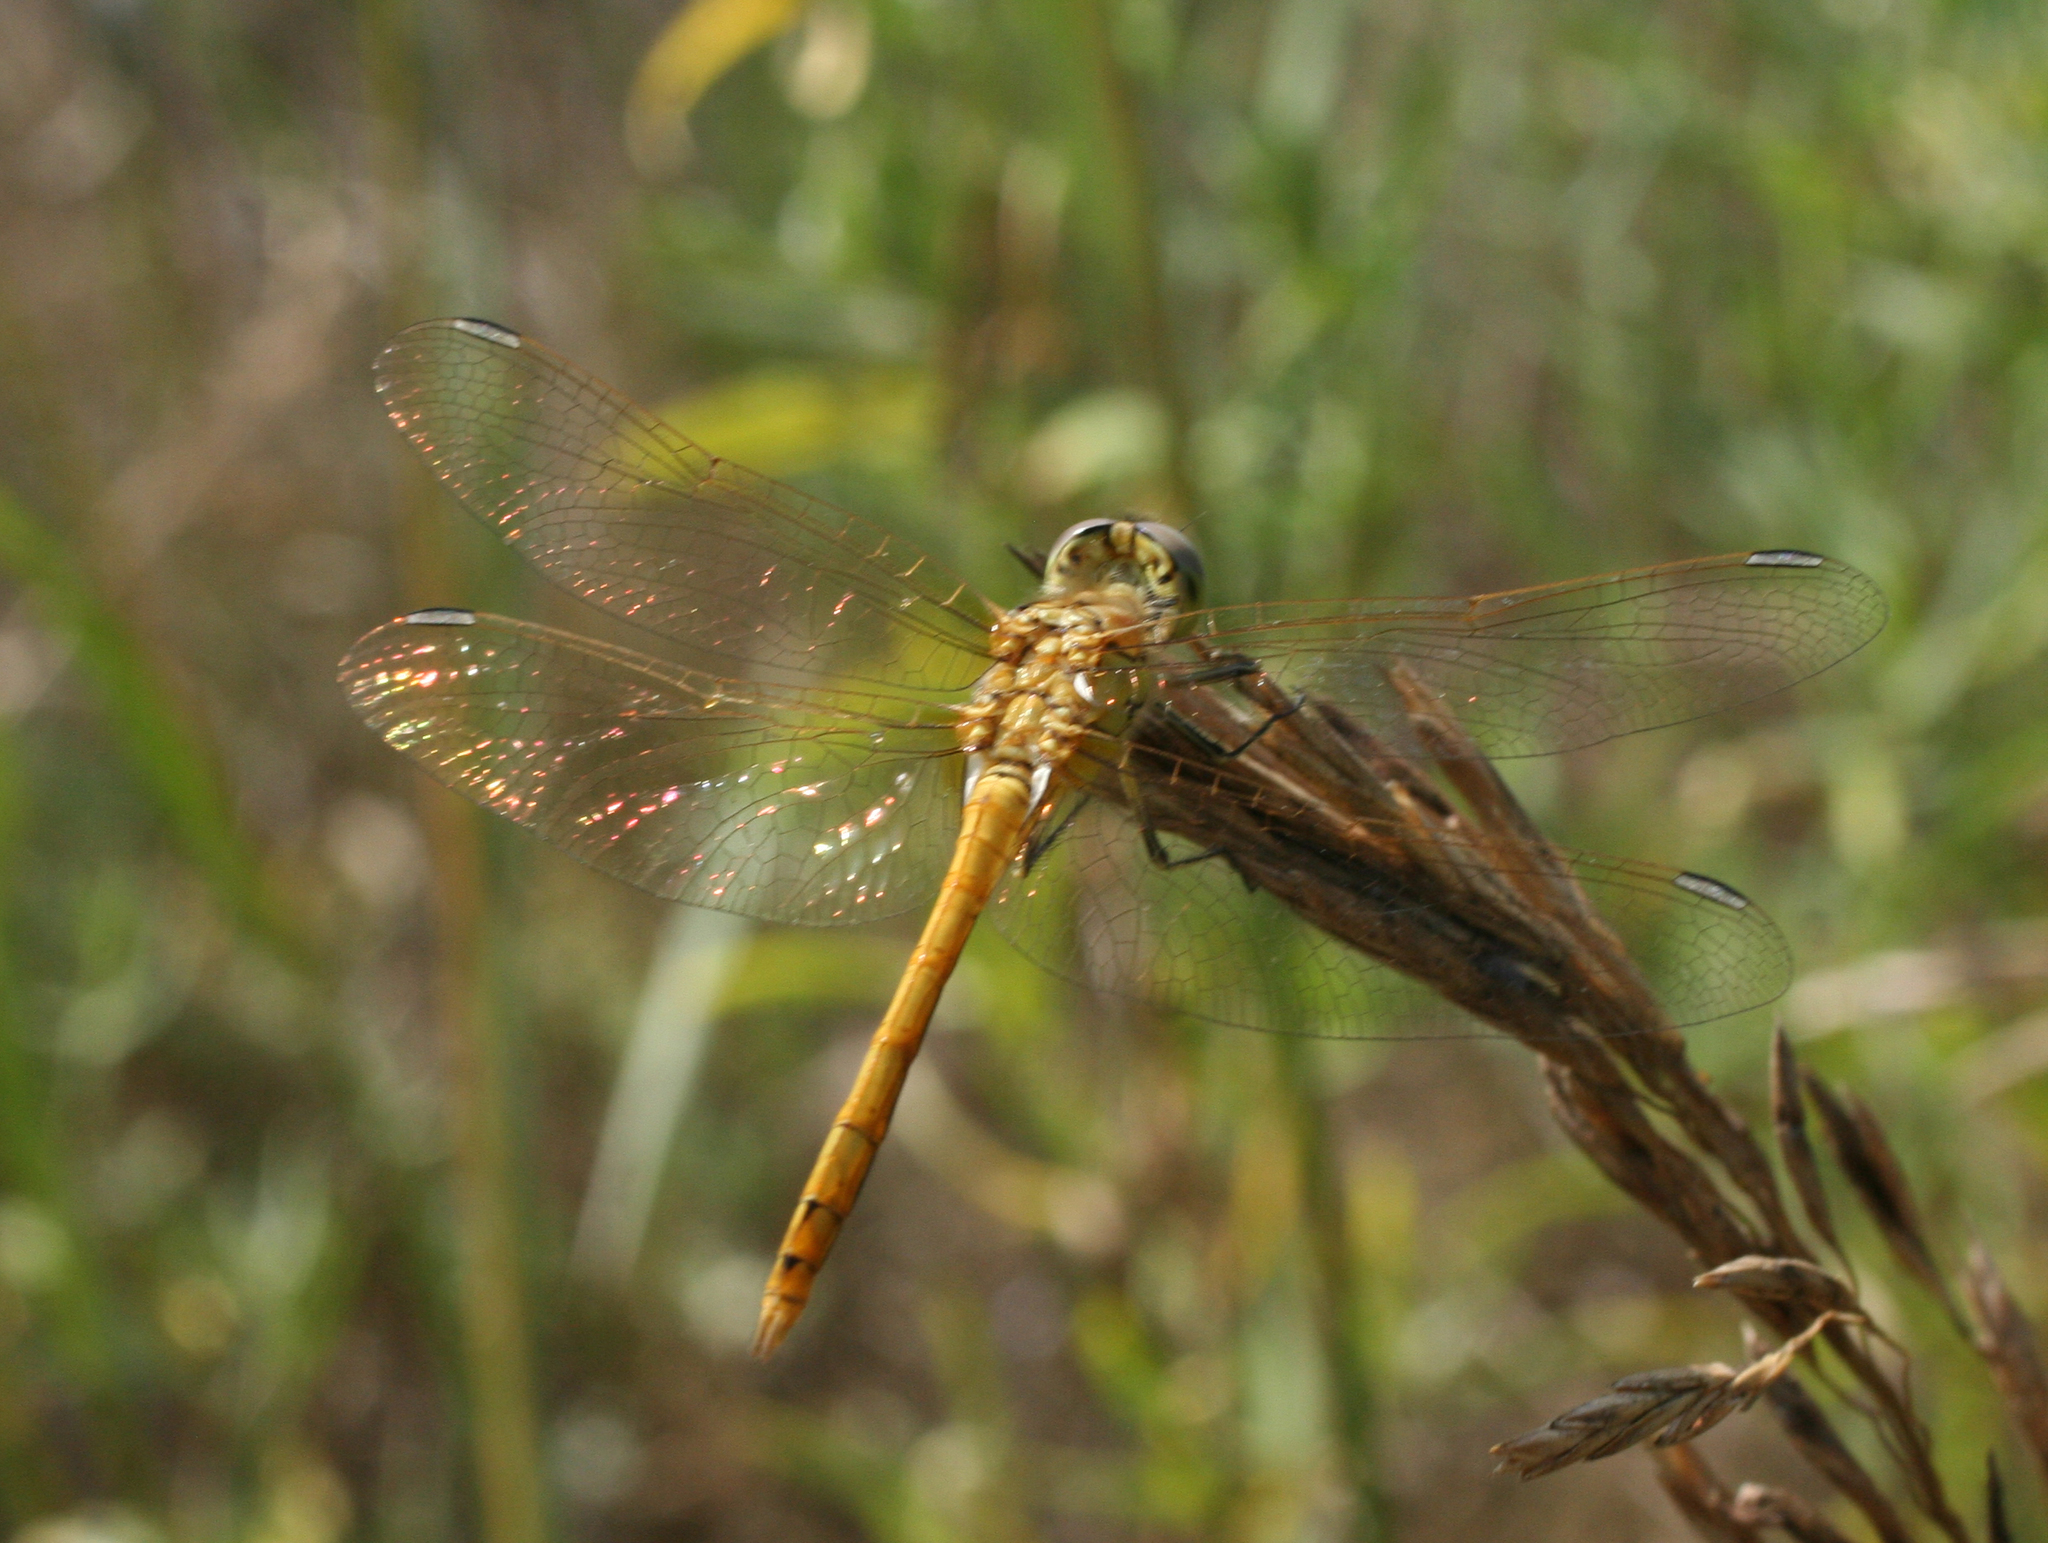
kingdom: Animalia
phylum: Arthropoda
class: Insecta
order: Odonata
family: Libellulidae
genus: Sympetrum
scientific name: Sympetrum vulgatum
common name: Vagrant darter
